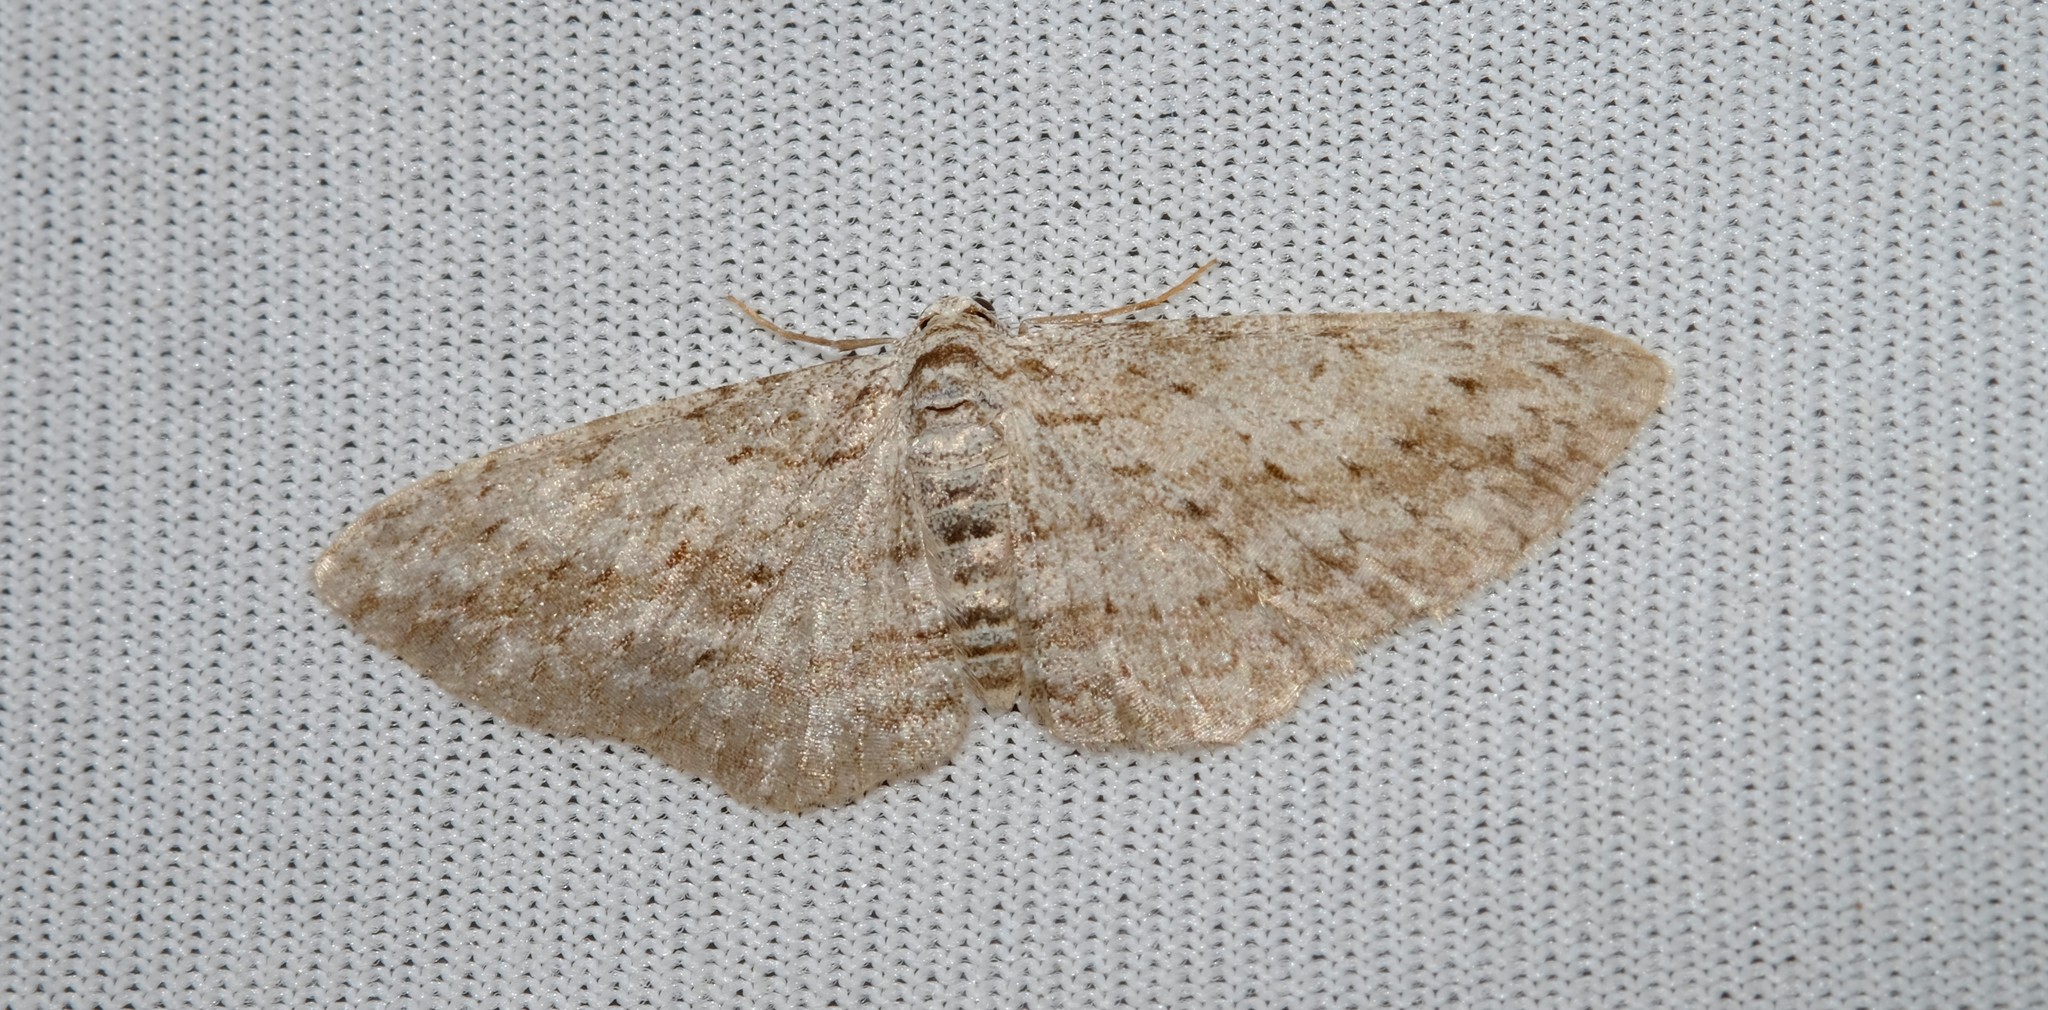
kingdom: Animalia
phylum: Arthropoda
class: Insecta
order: Lepidoptera
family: Geometridae
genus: Phelotis
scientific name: Phelotis cognata
